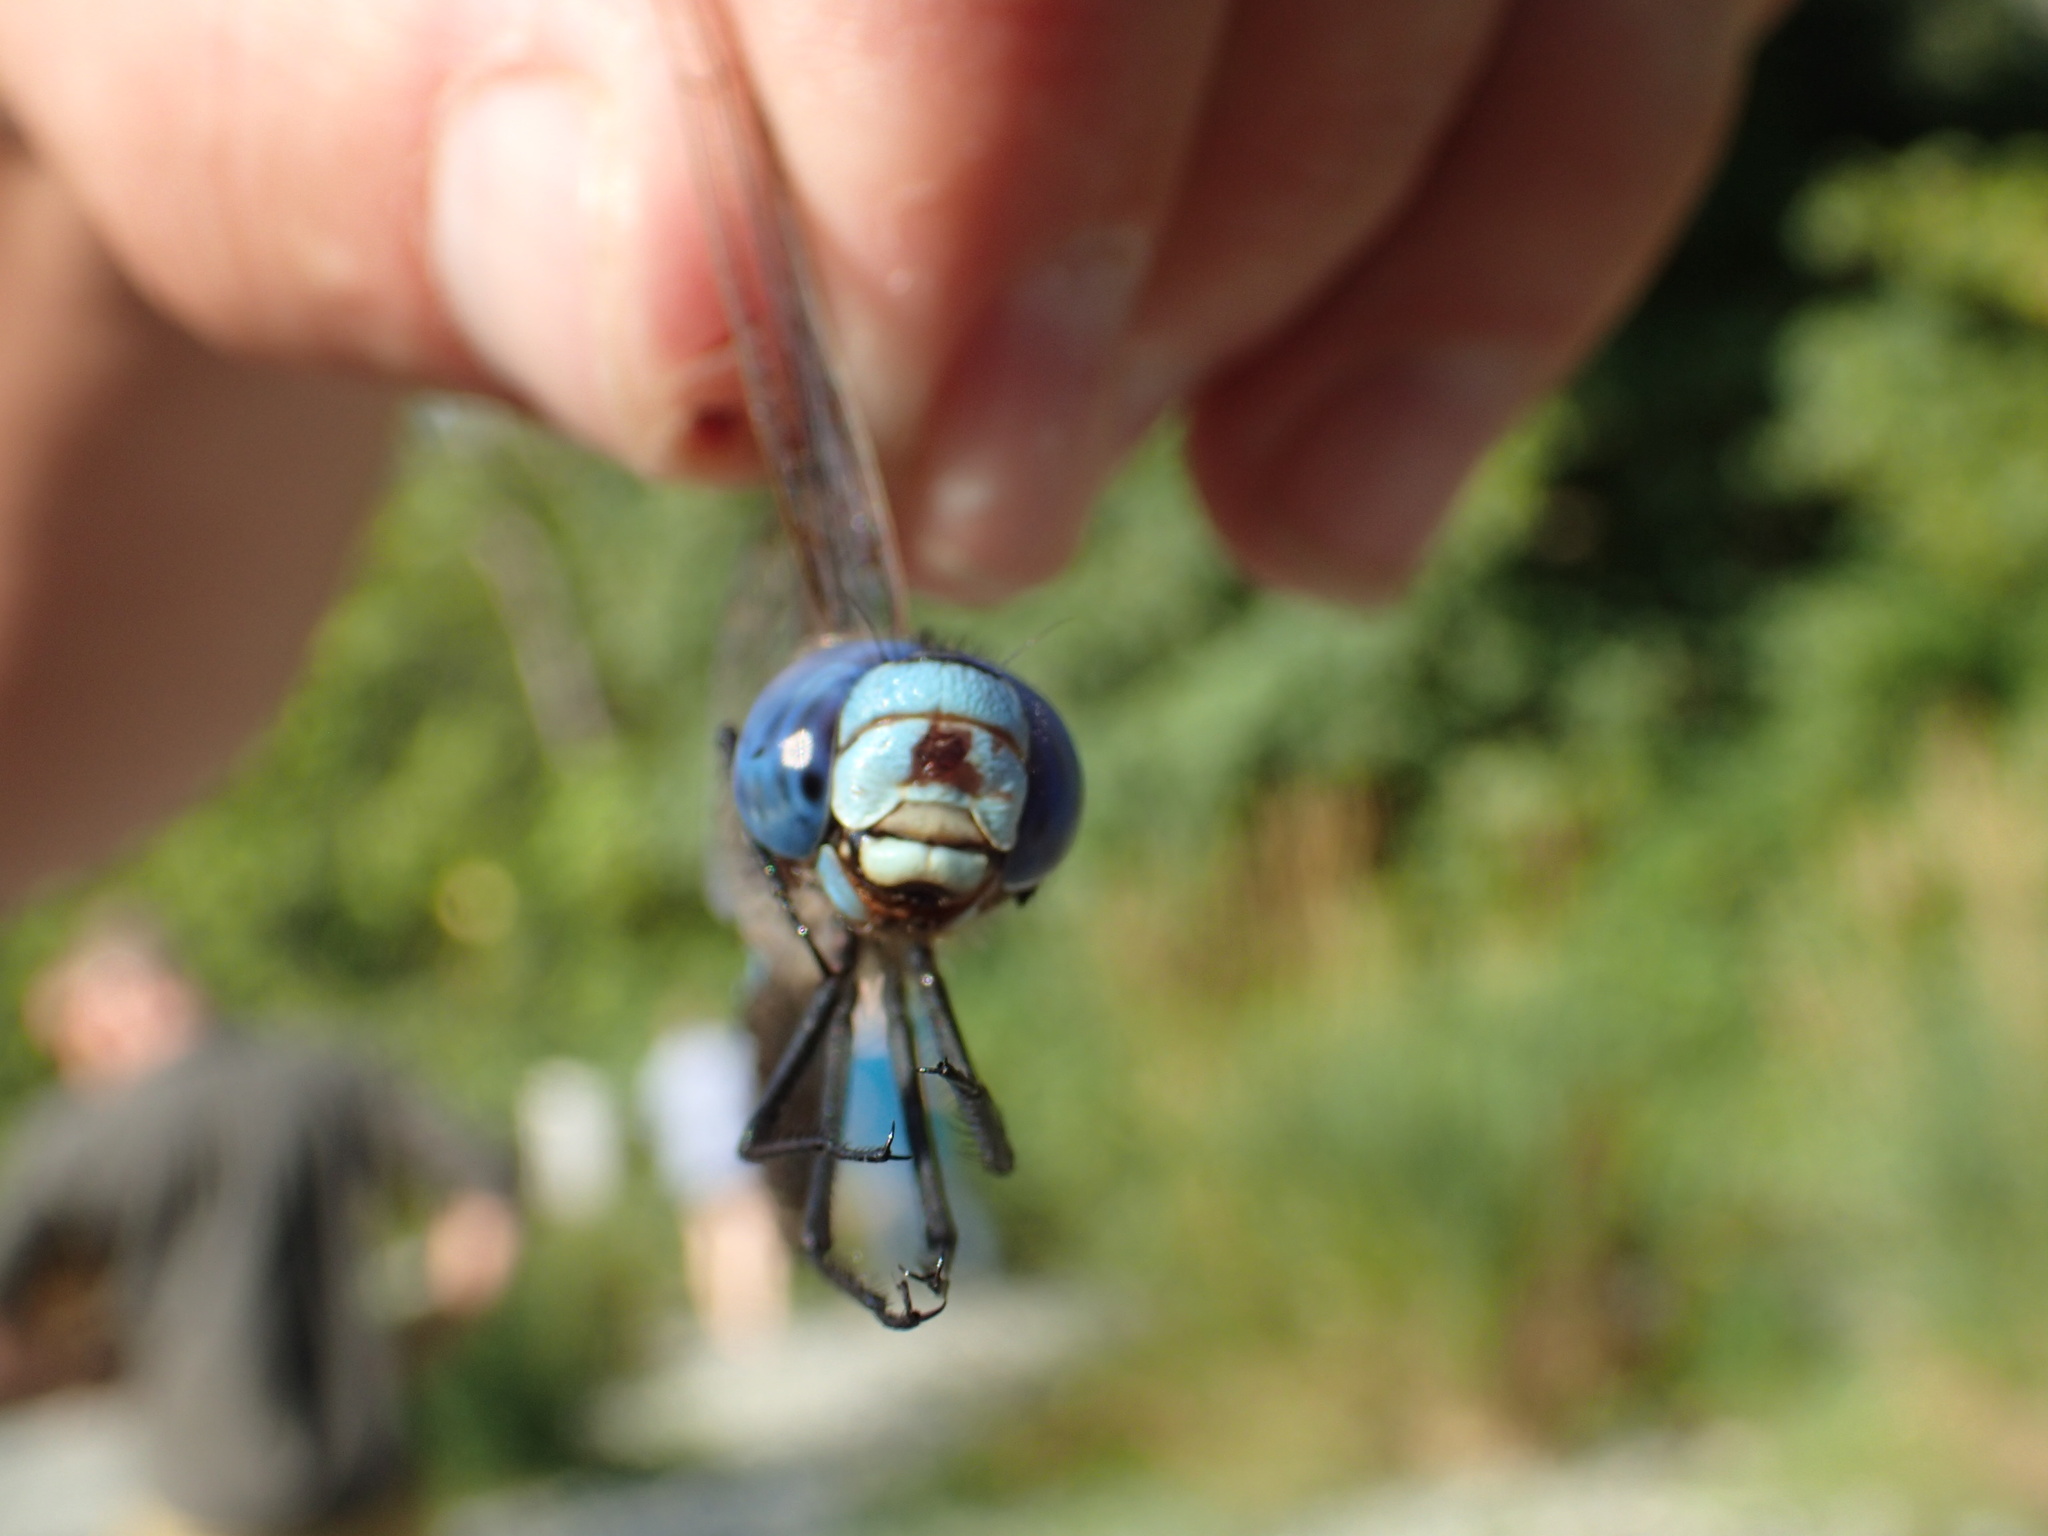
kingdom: Animalia
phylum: Arthropoda
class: Insecta
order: Odonata
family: Aeshnidae
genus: Rhionaeschna
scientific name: Rhionaeschna multicolor
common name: Blue-eyed darner
